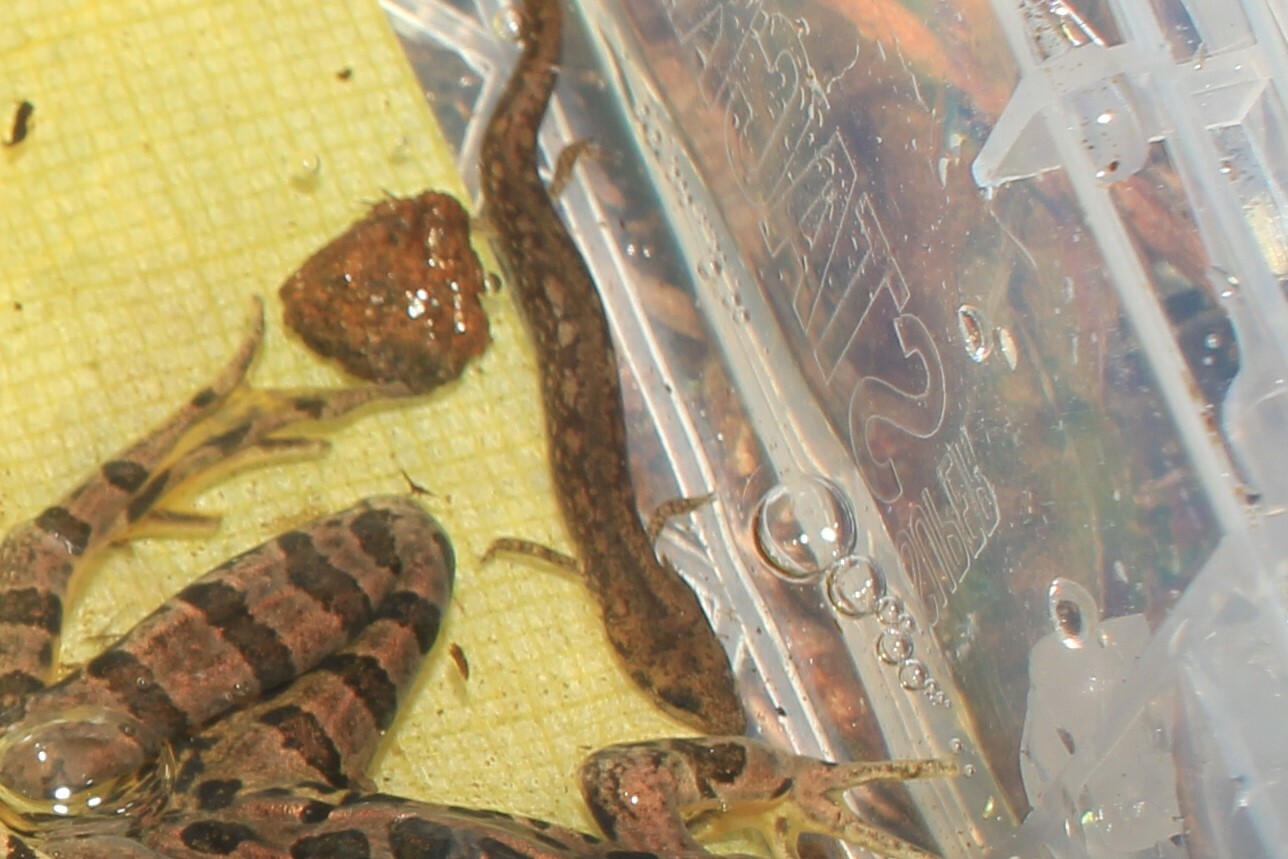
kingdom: Animalia
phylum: Chordata
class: Amphibia
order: Caudata
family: Plethodontidae
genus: Eurycea
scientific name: Eurycea bislineata
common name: Northern two-lined salamander
